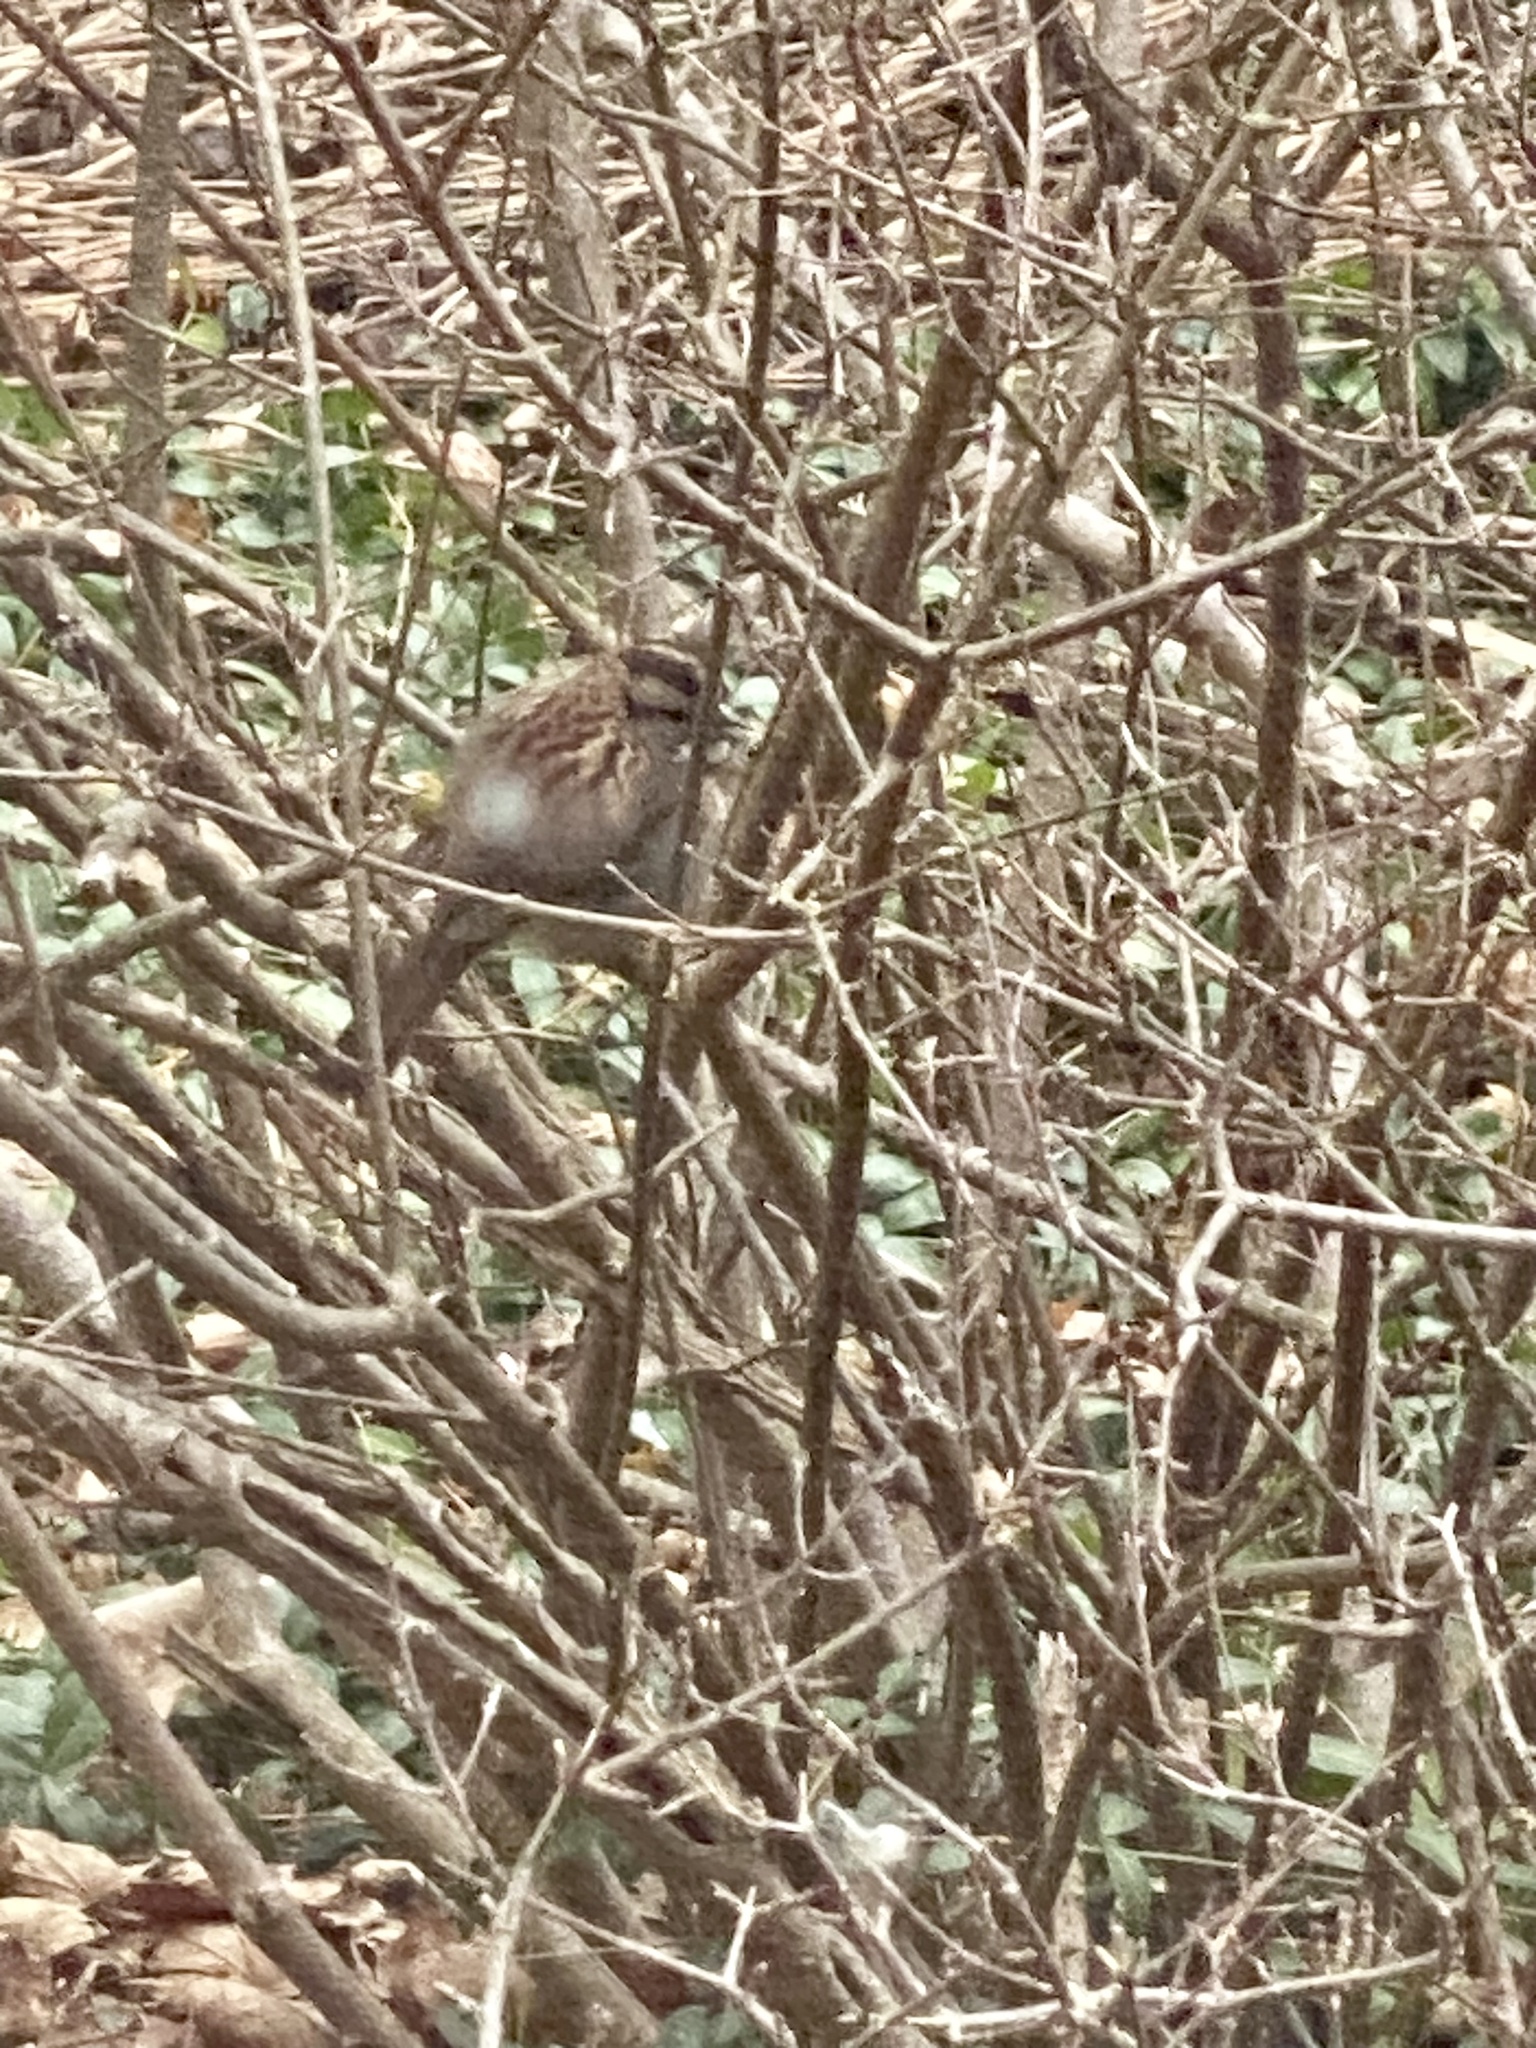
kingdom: Animalia
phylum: Chordata
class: Aves
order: Passeriformes
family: Passerellidae
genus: Zonotrichia
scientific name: Zonotrichia albicollis
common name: White-throated sparrow
